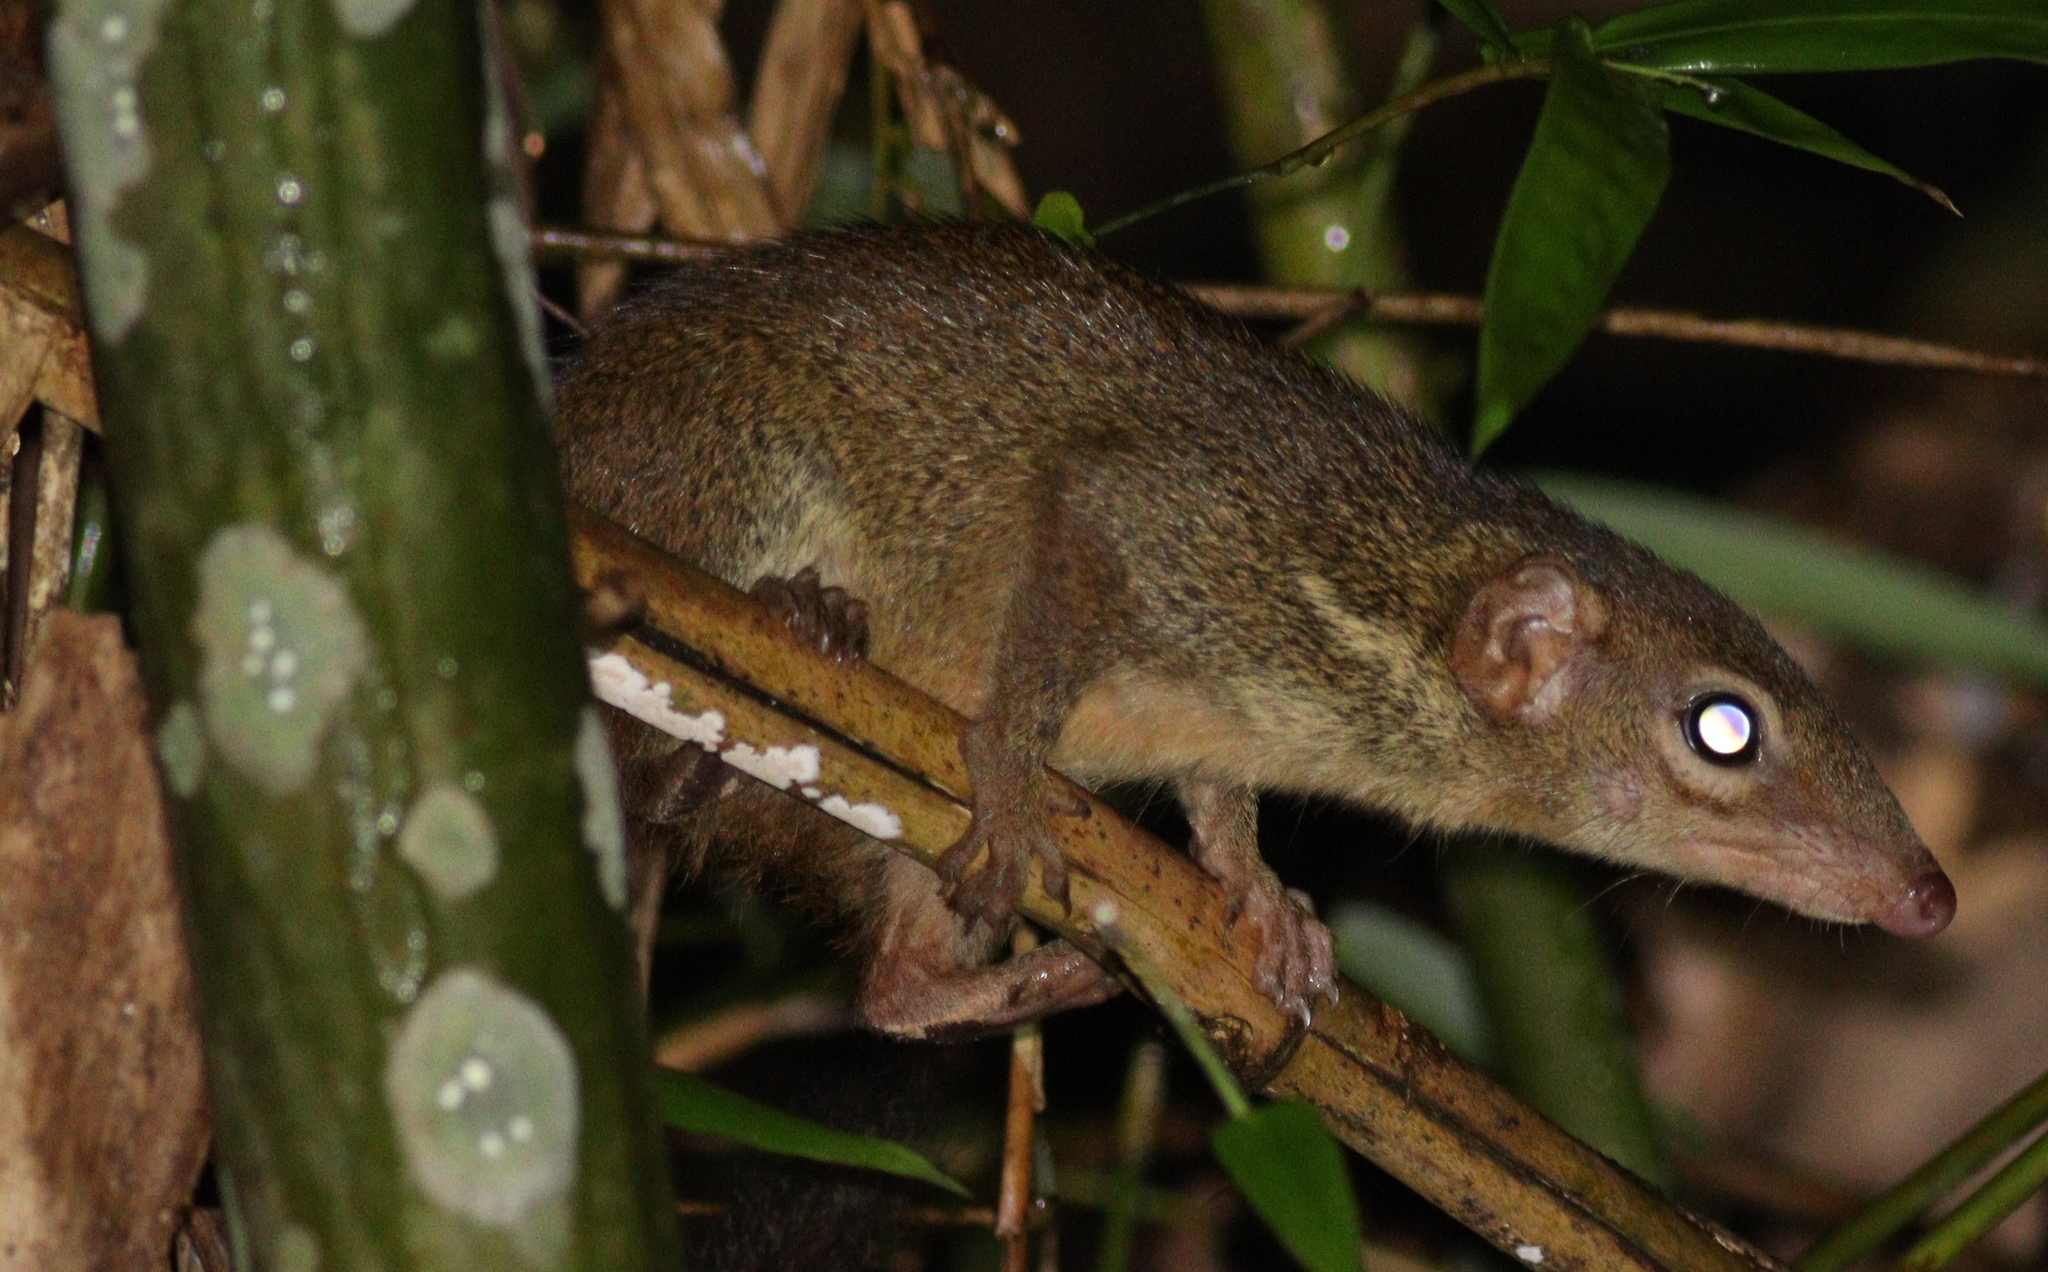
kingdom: Animalia
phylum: Chordata
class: Mammalia
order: Scandentia
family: Tupaiidae
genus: Tupaia
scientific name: Tupaia belangeri
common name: Northern treeshrew
